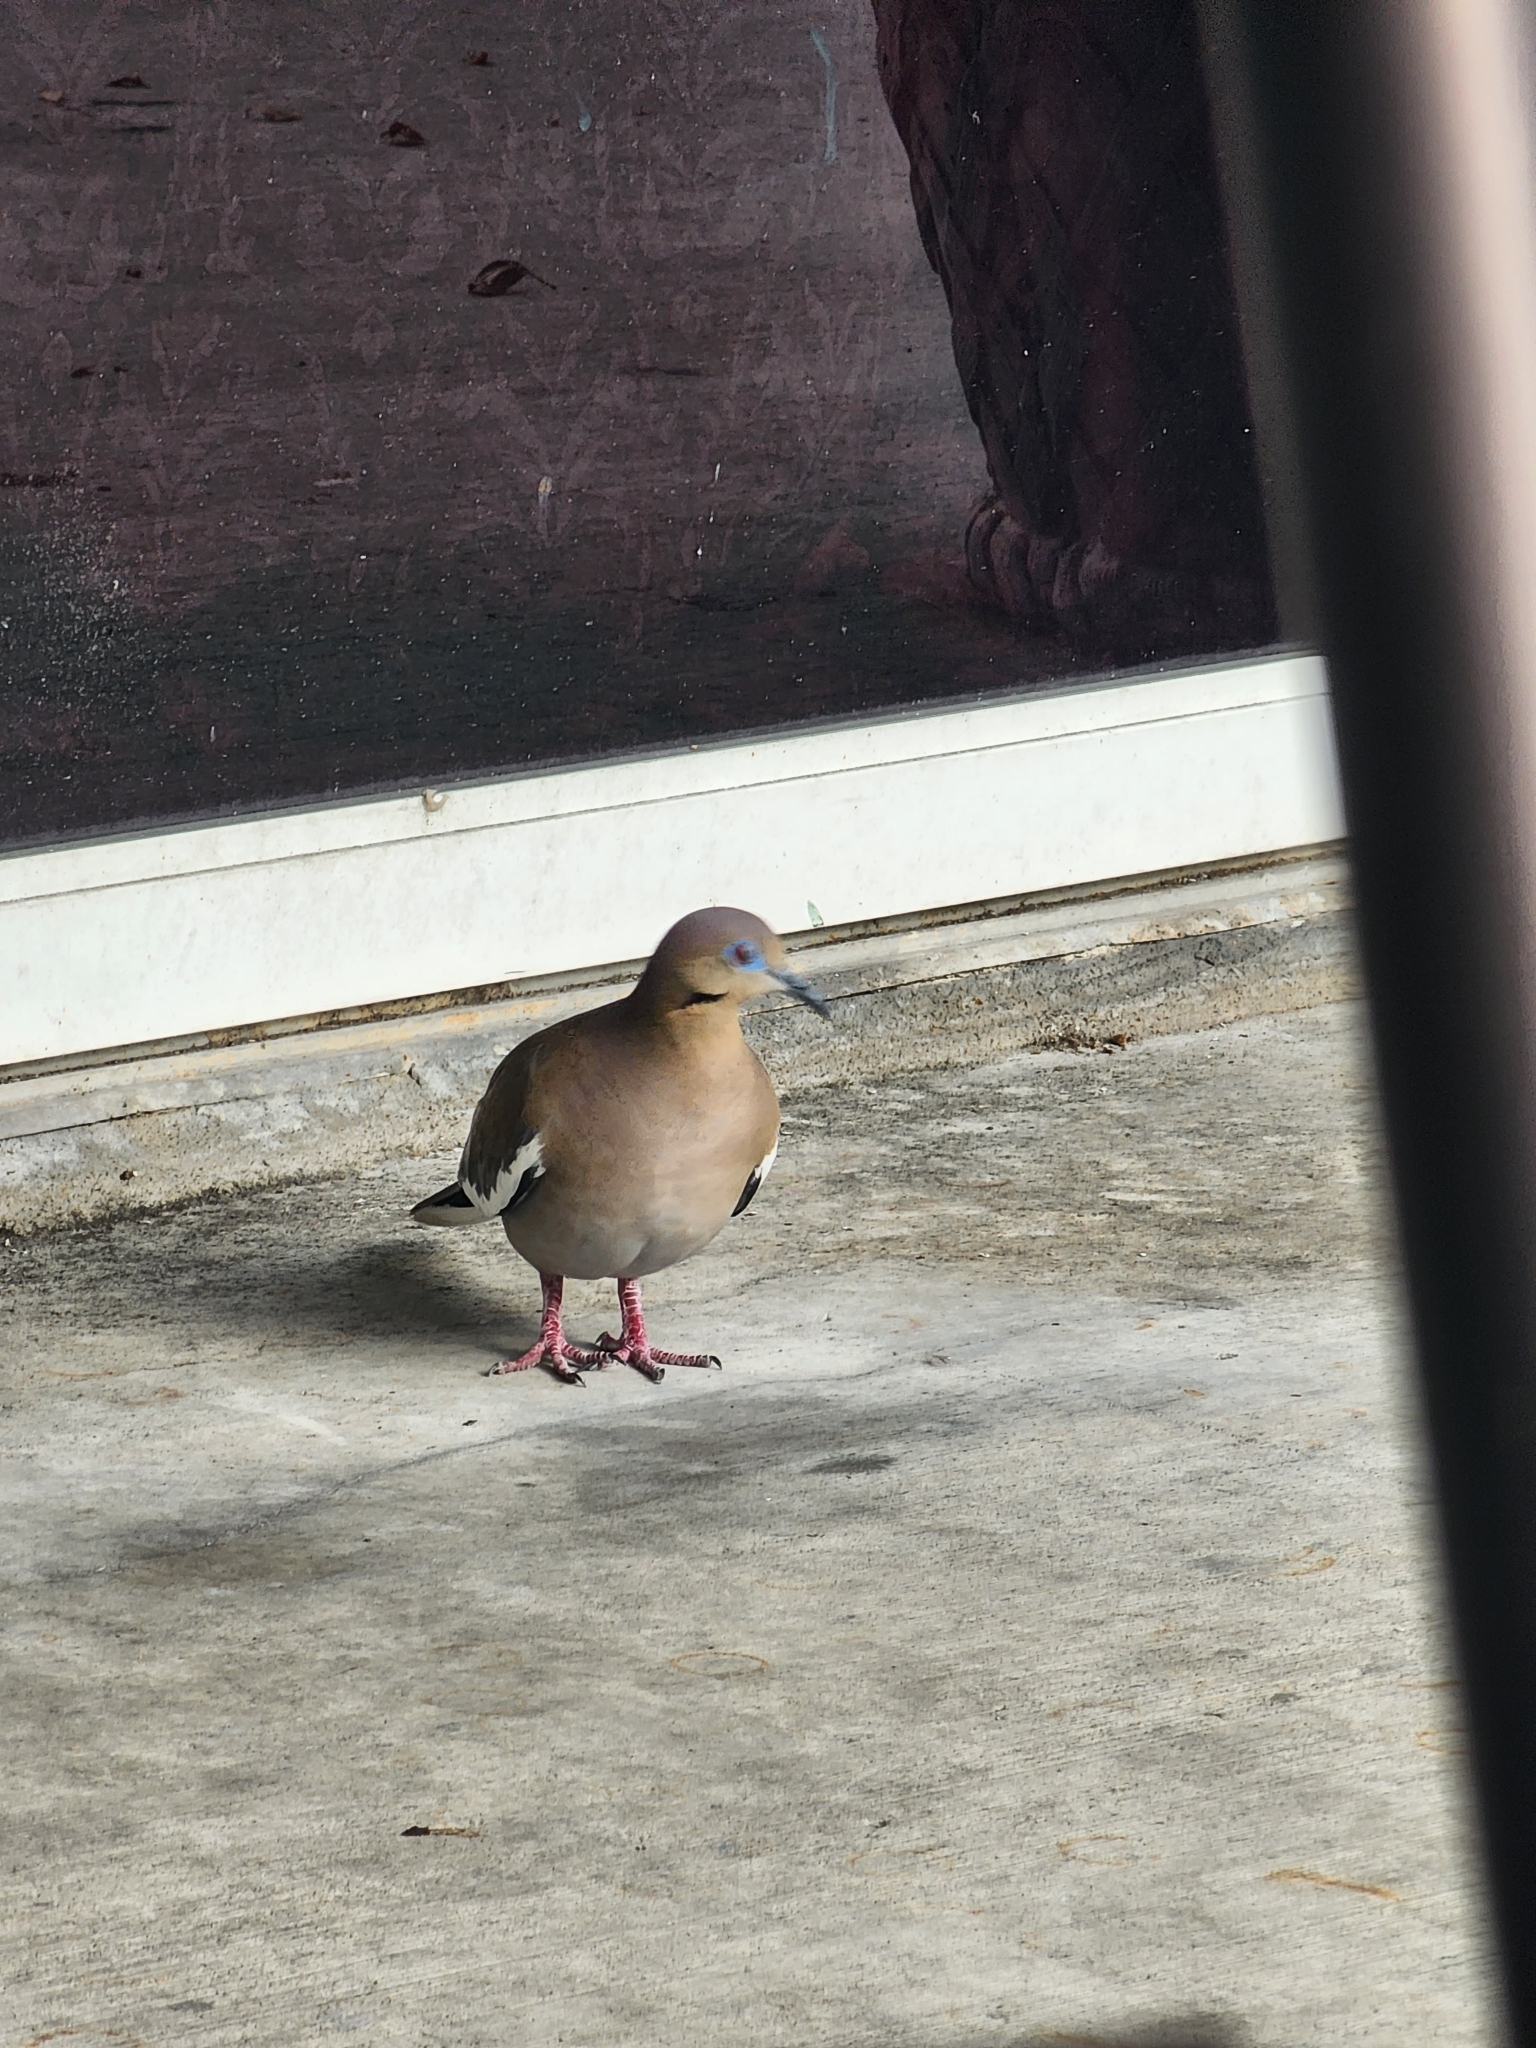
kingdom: Animalia
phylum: Chordata
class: Aves
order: Columbiformes
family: Columbidae
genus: Zenaida
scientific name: Zenaida asiatica
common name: White-winged dove
